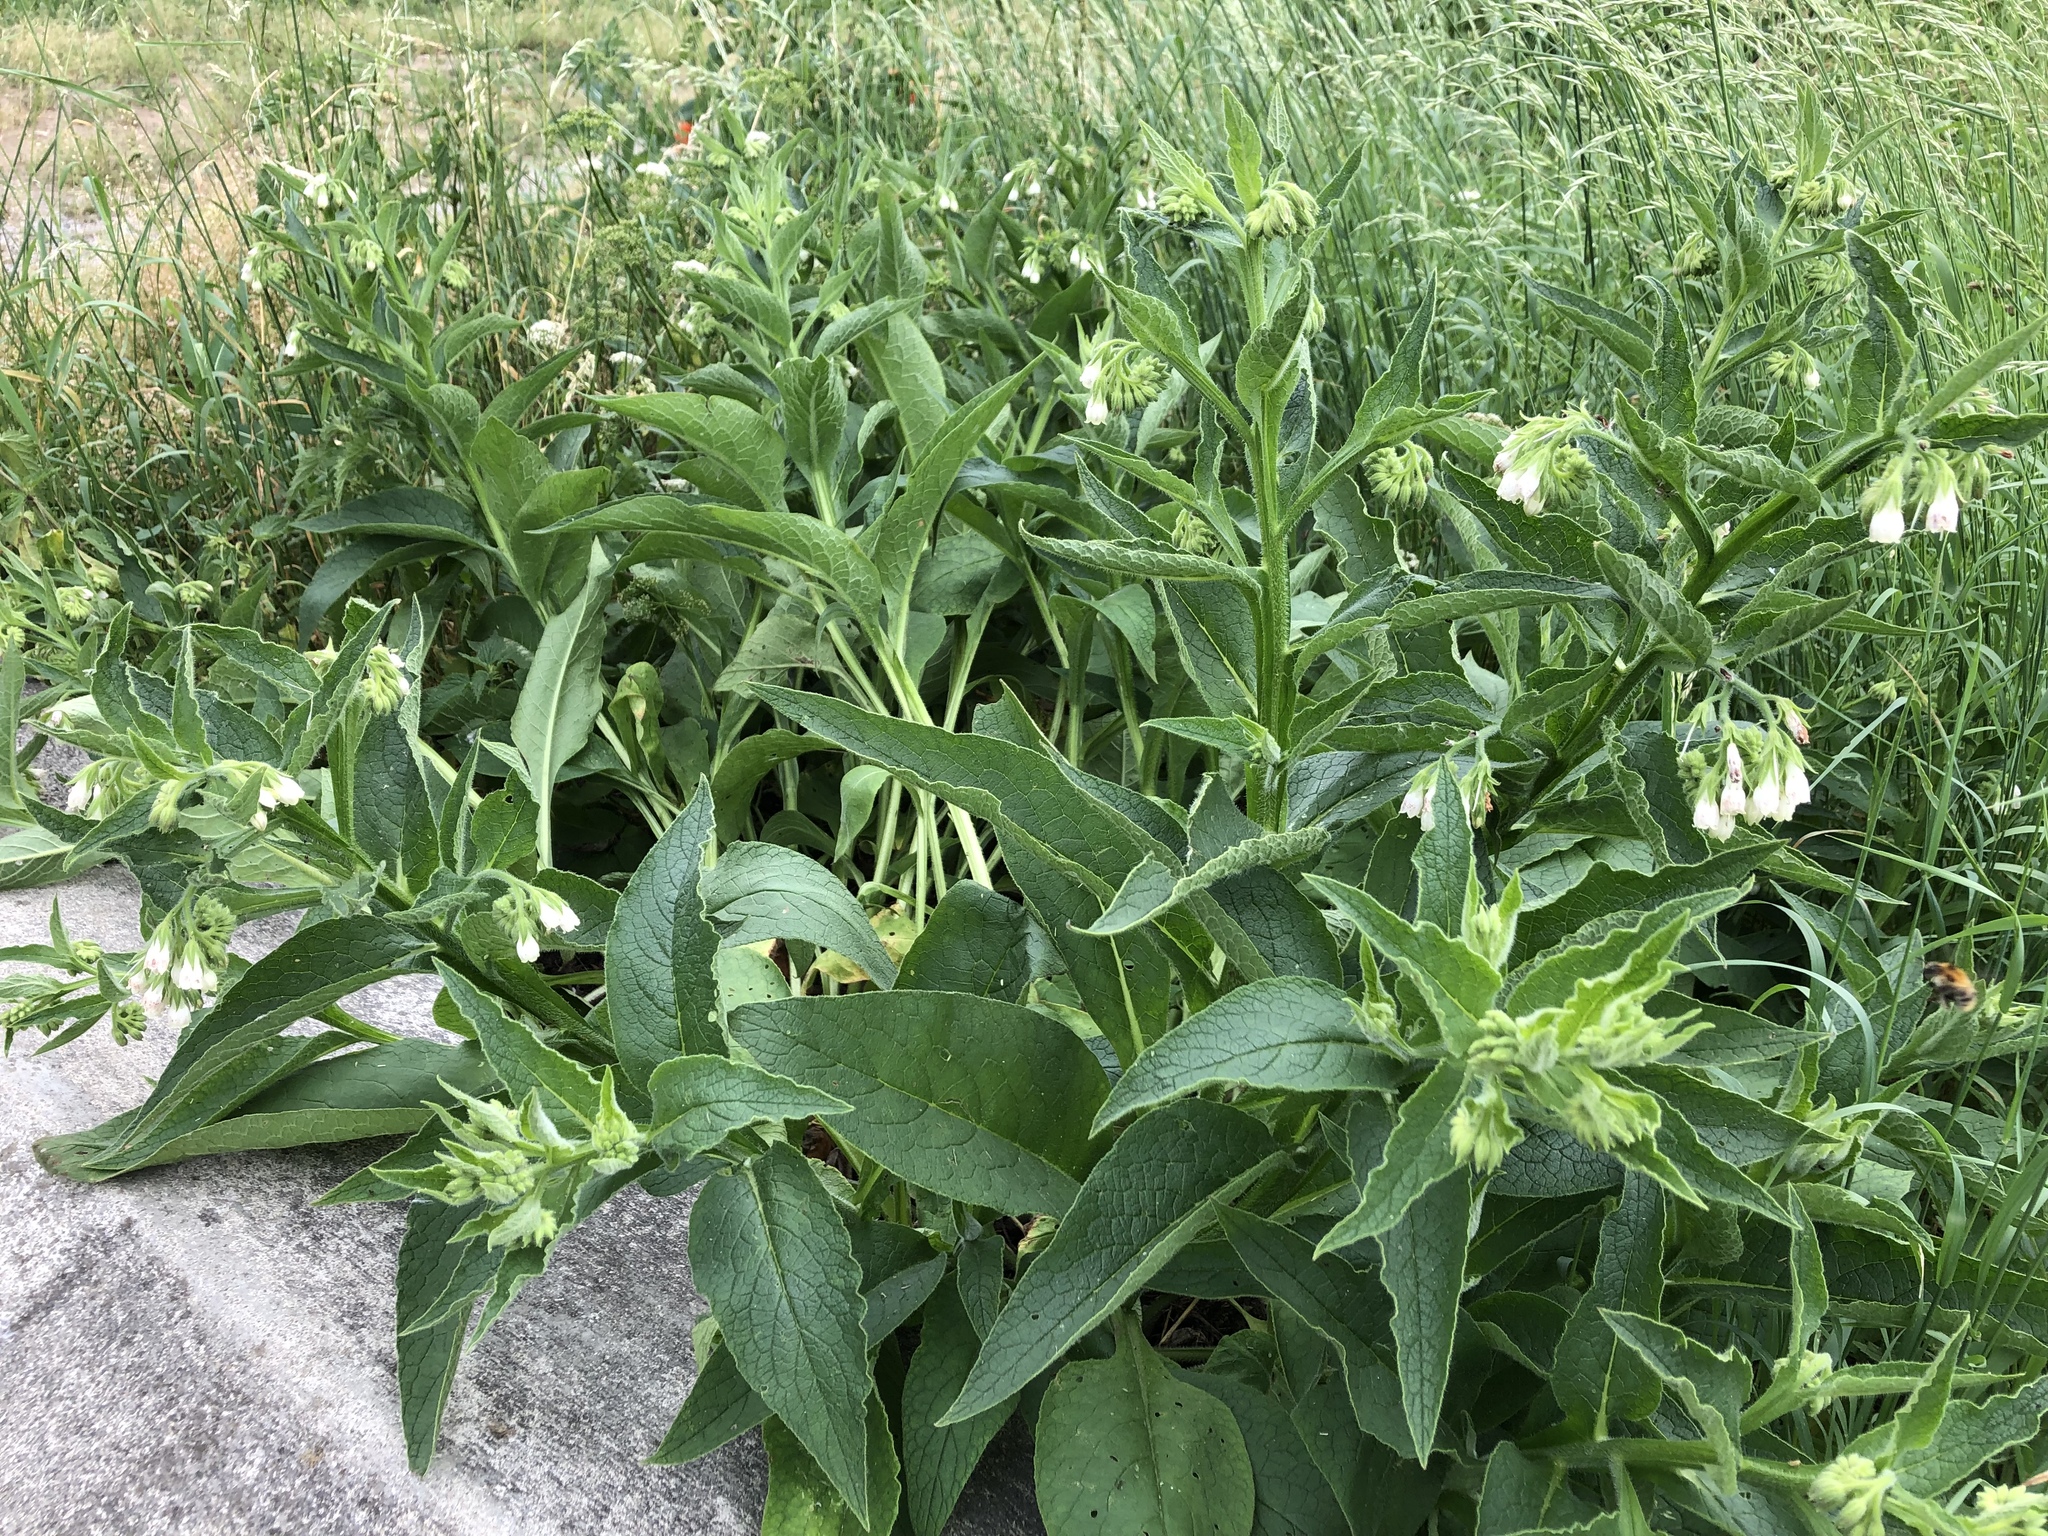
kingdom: Plantae
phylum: Tracheophyta
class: Magnoliopsida
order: Boraginales
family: Boraginaceae
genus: Symphytum
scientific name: Symphytum officinale
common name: Common comfrey
